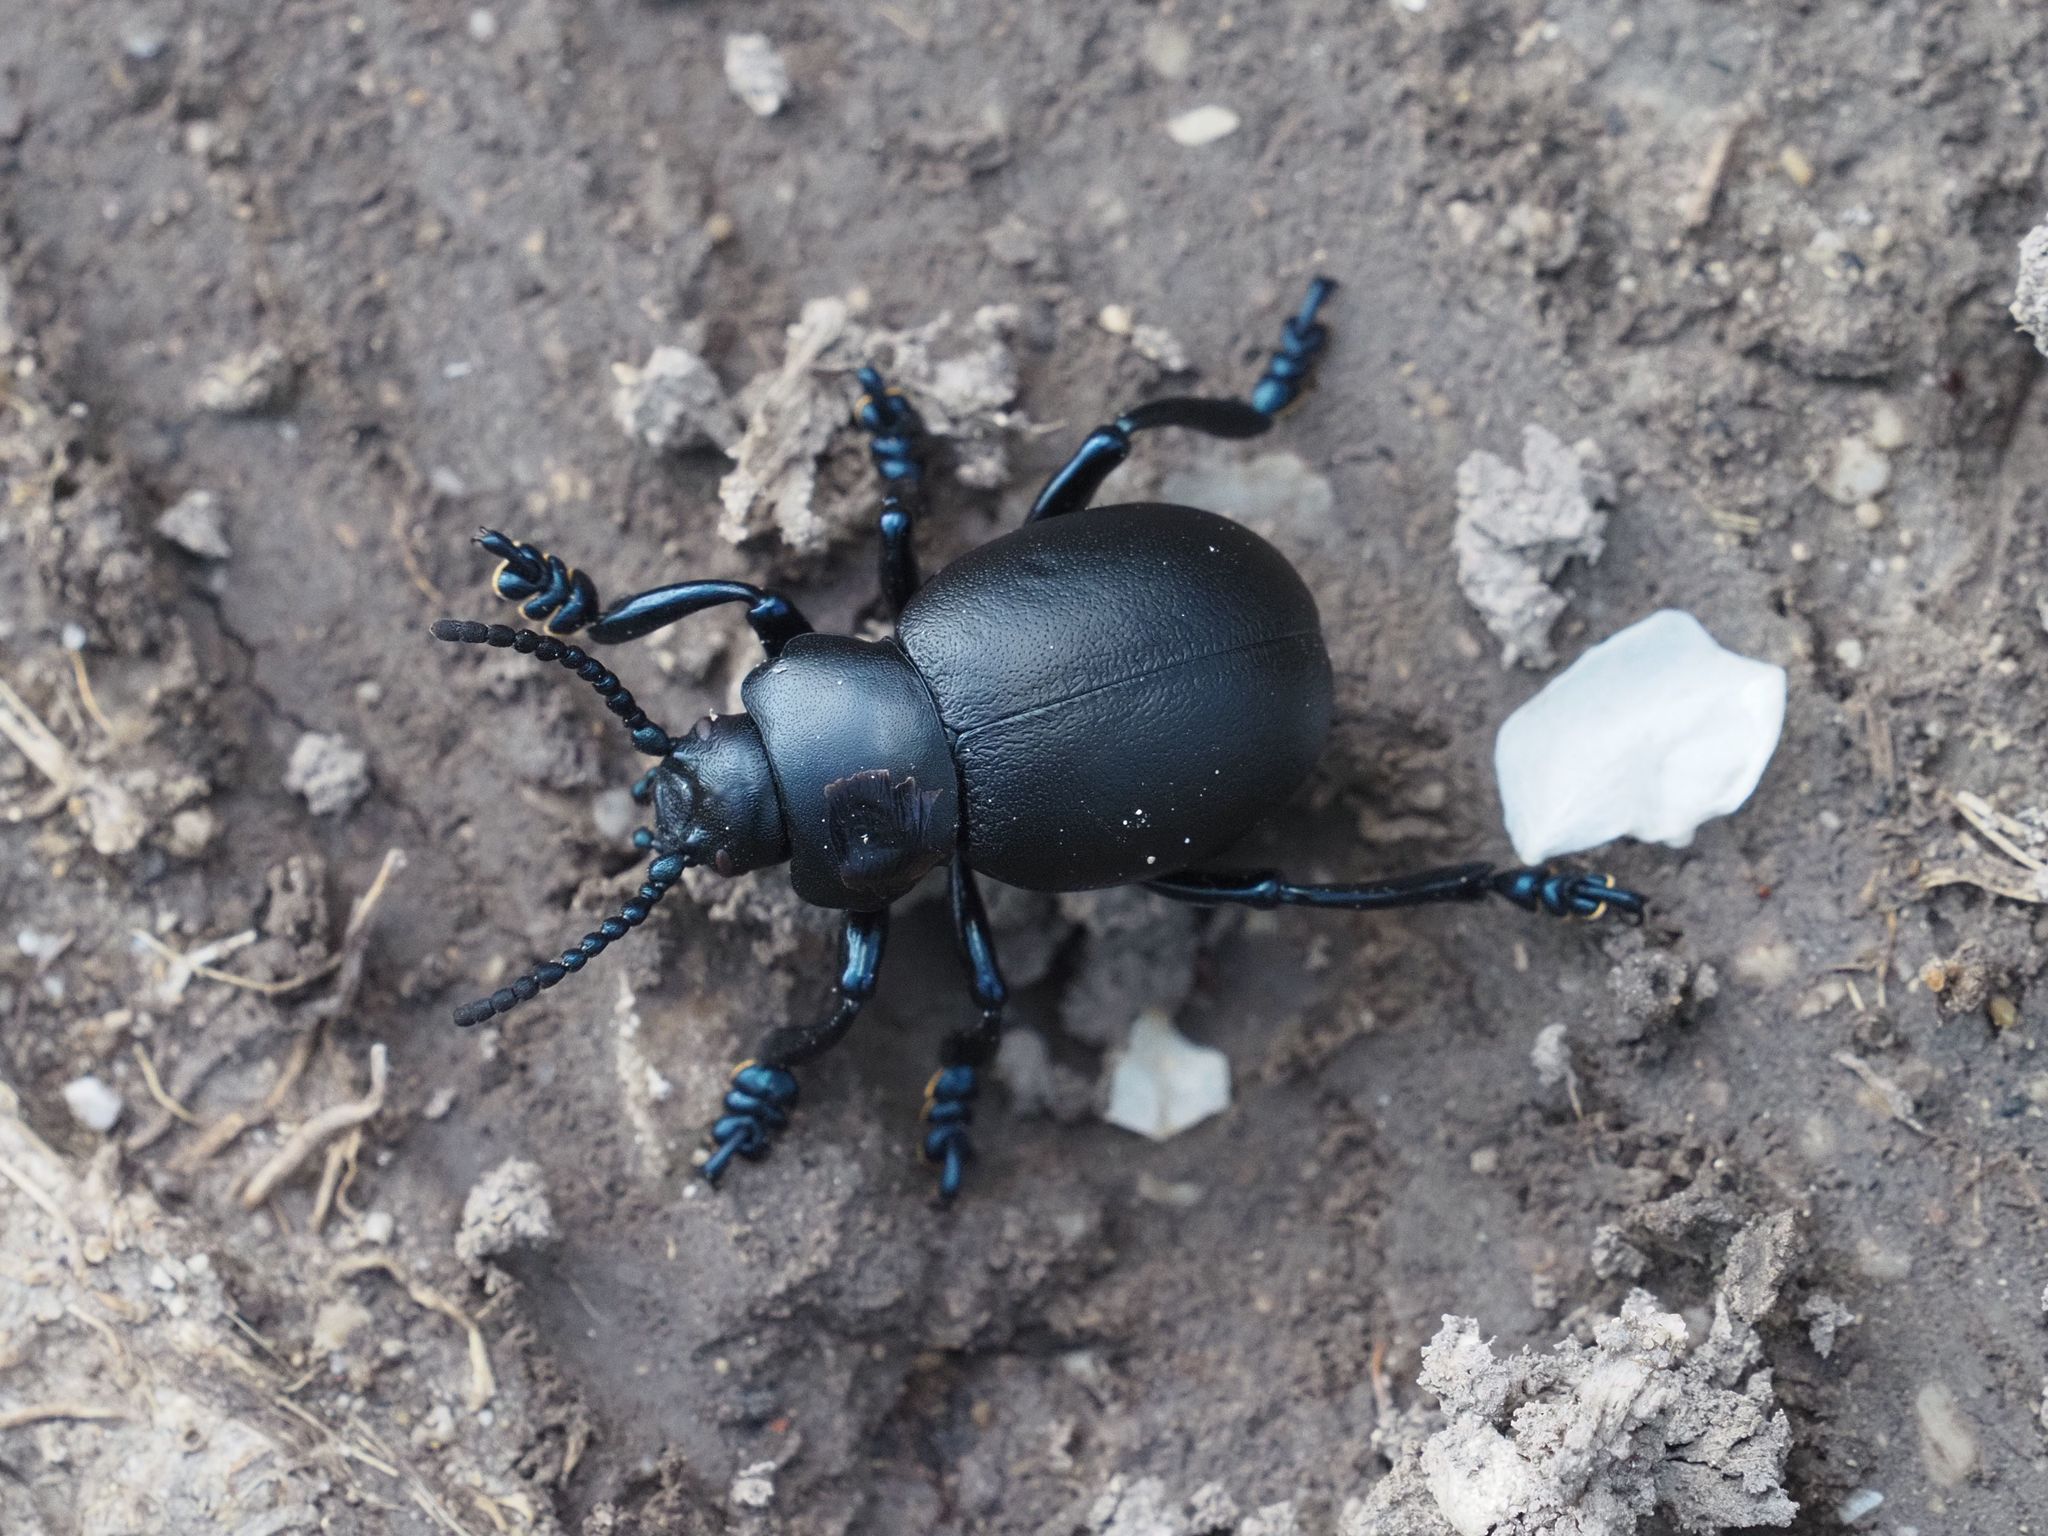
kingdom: Animalia
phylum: Arthropoda
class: Insecta
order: Coleoptera
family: Chrysomelidae
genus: Timarcha
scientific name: Timarcha tenebricosa
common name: Bloody-nosed beetle
